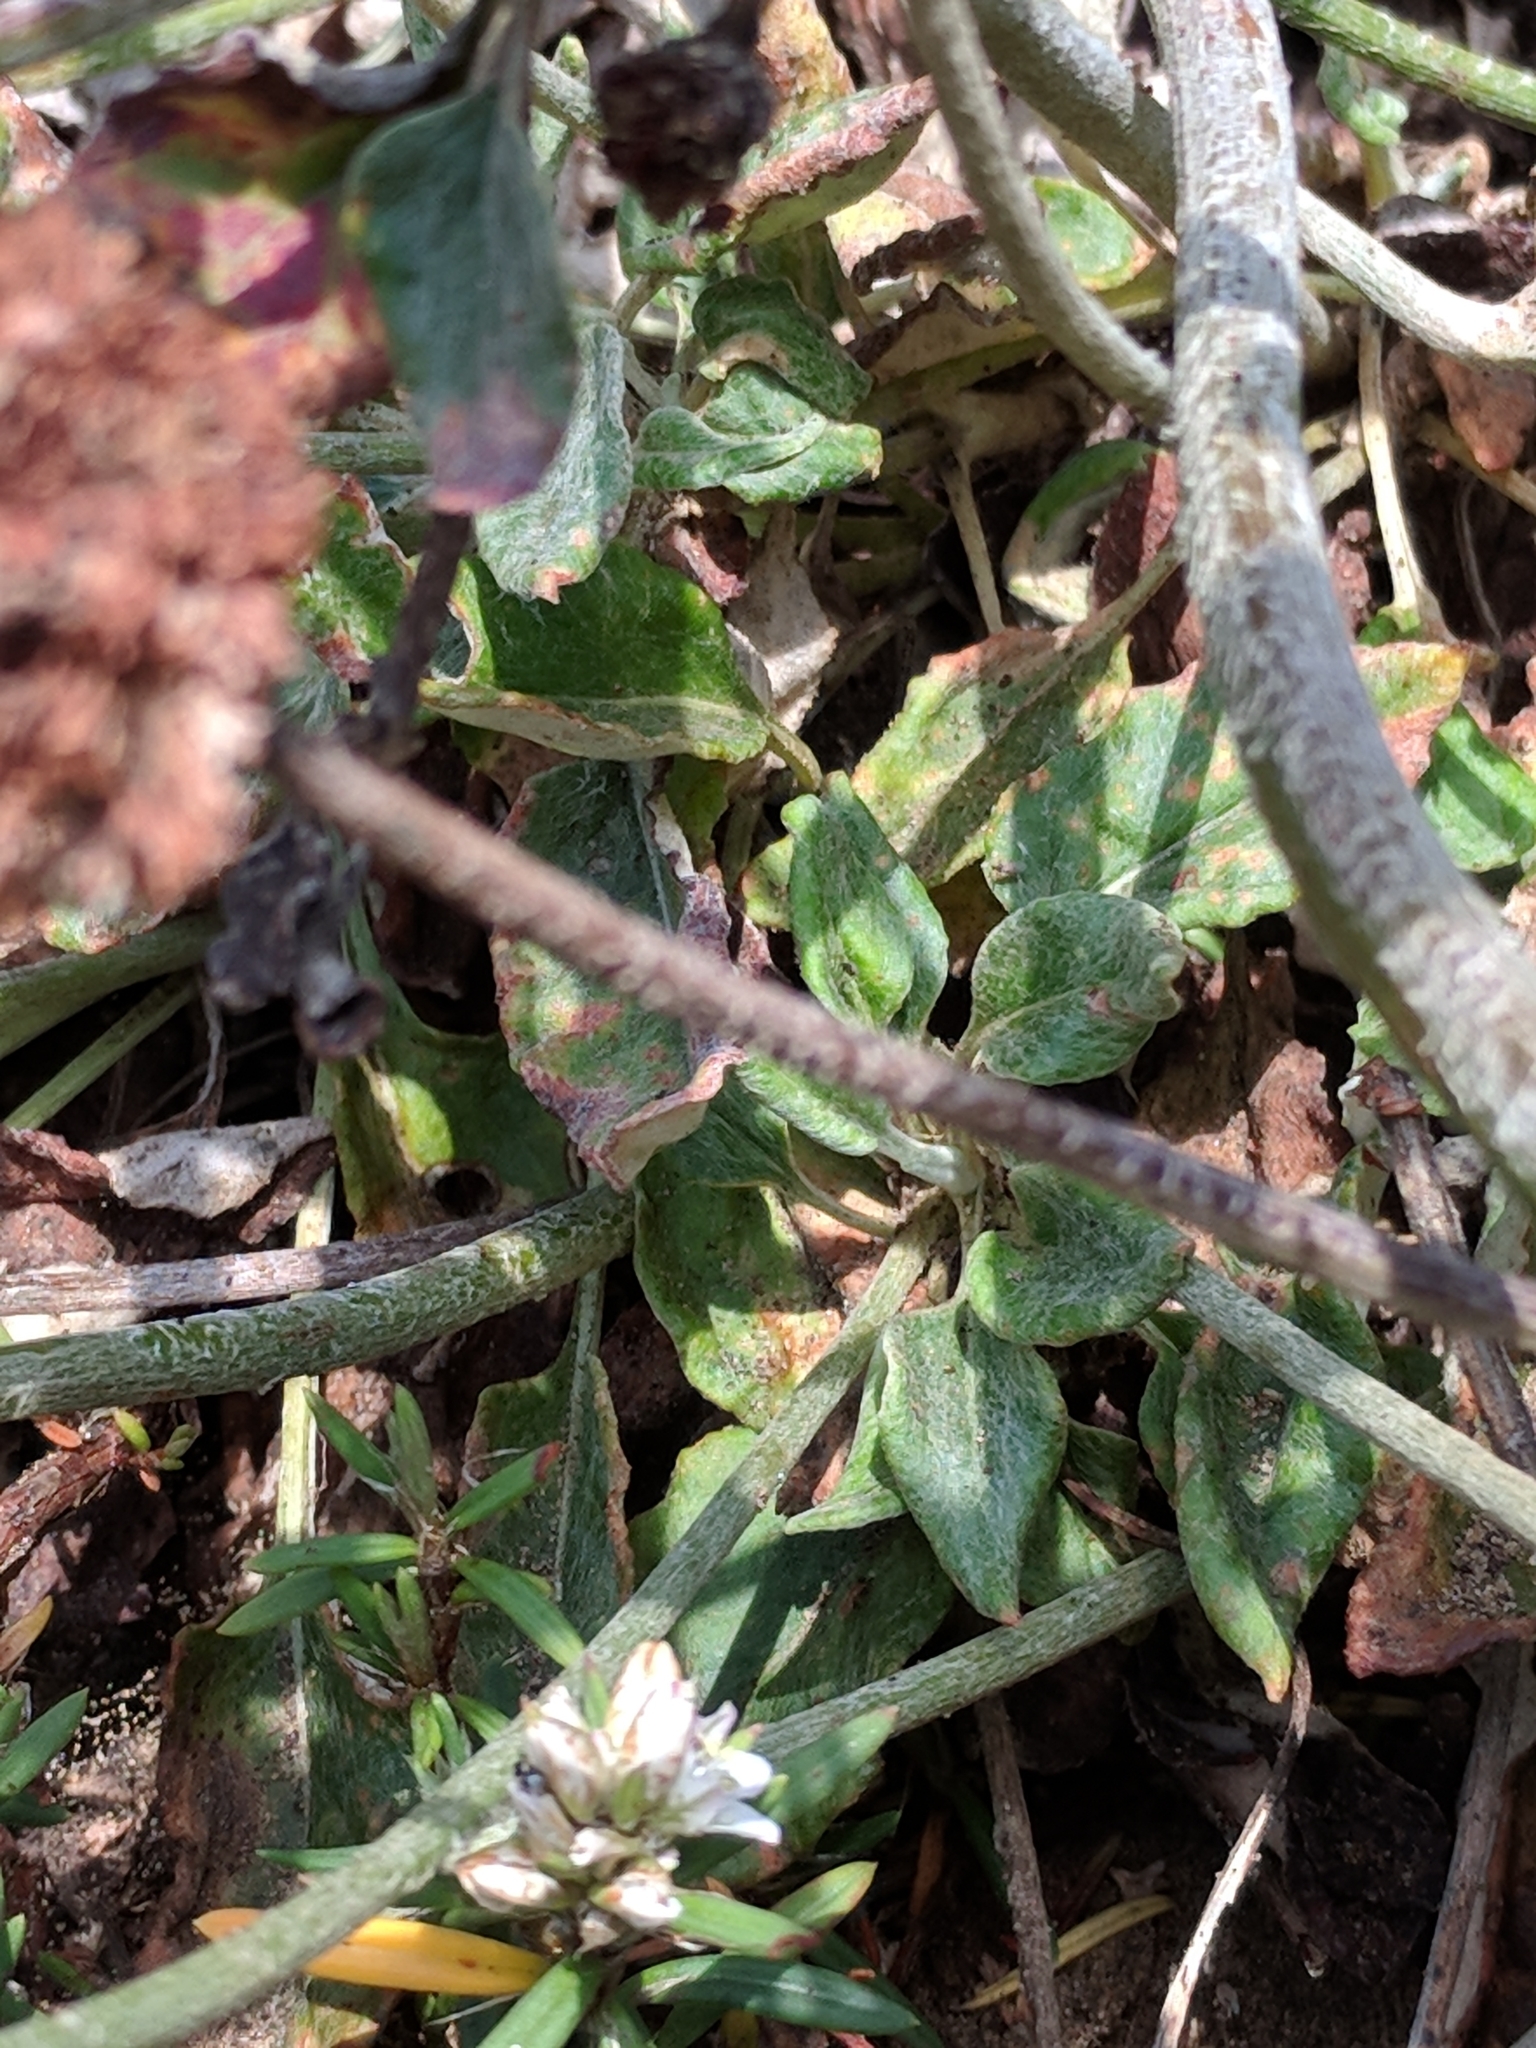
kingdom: Plantae
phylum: Tracheophyta
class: Magnoliopsida
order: Caryophyllales
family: Polygonaceae
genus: Eriogonum
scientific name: Eriogonum latifolium
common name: Seaside wild buckwheat
